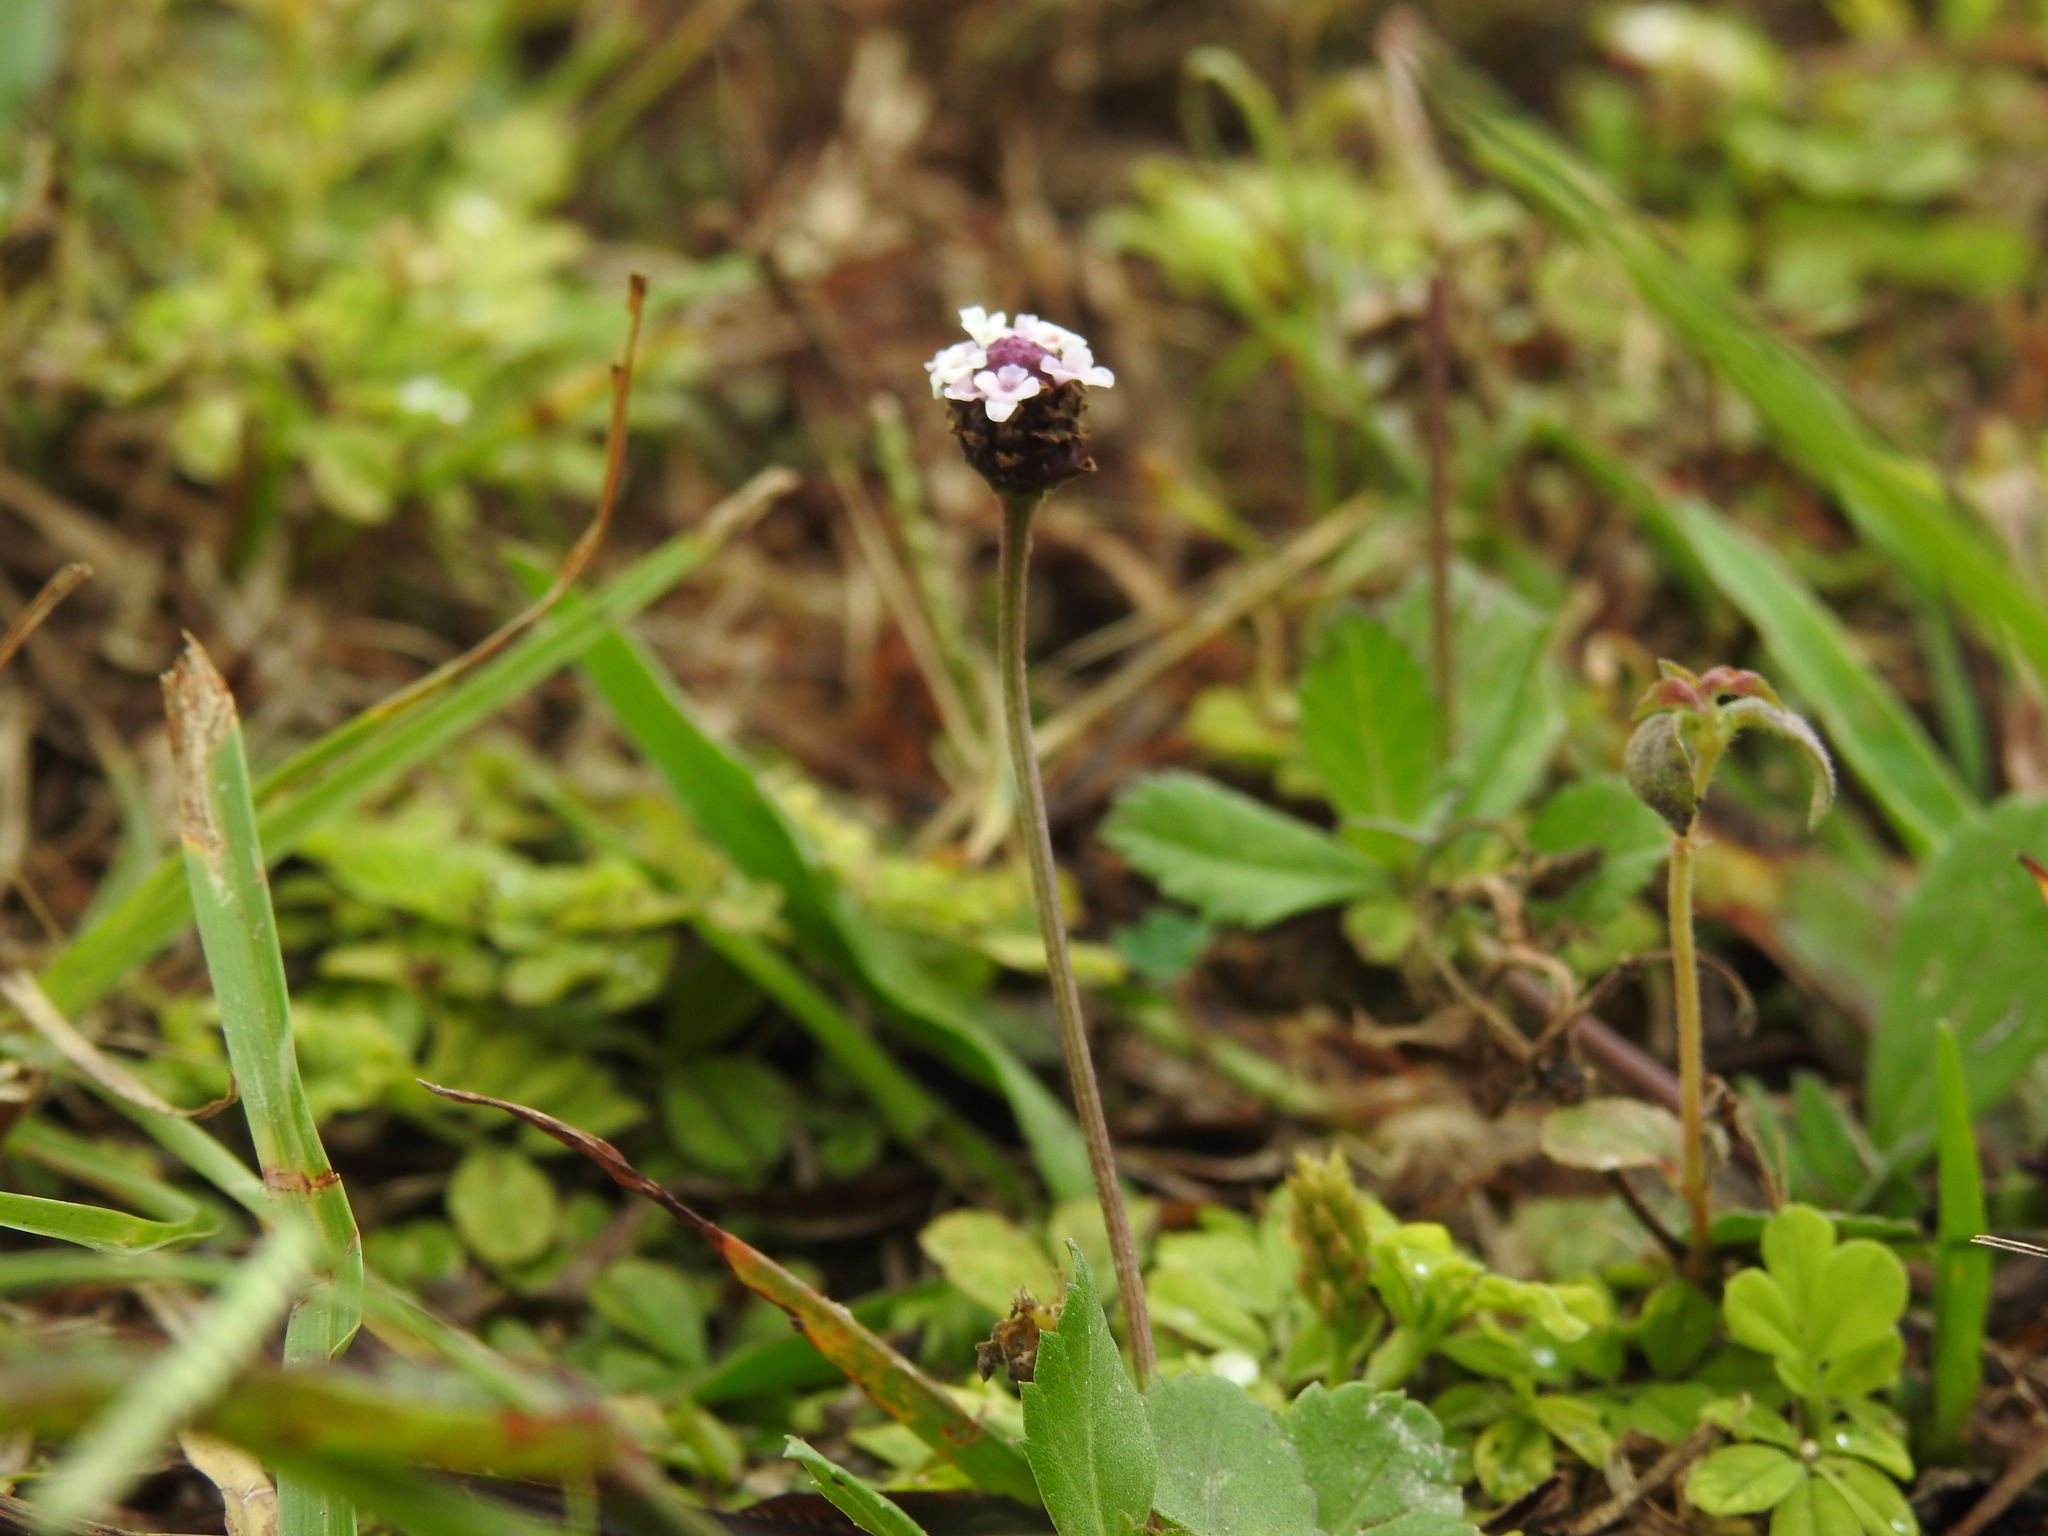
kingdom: Plantae
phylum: Tracheophyta
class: Magnoliopsida
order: Lamiales
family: Verbenaceae
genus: Phyla
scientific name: Phyla nodiflora
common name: Frogfruit
